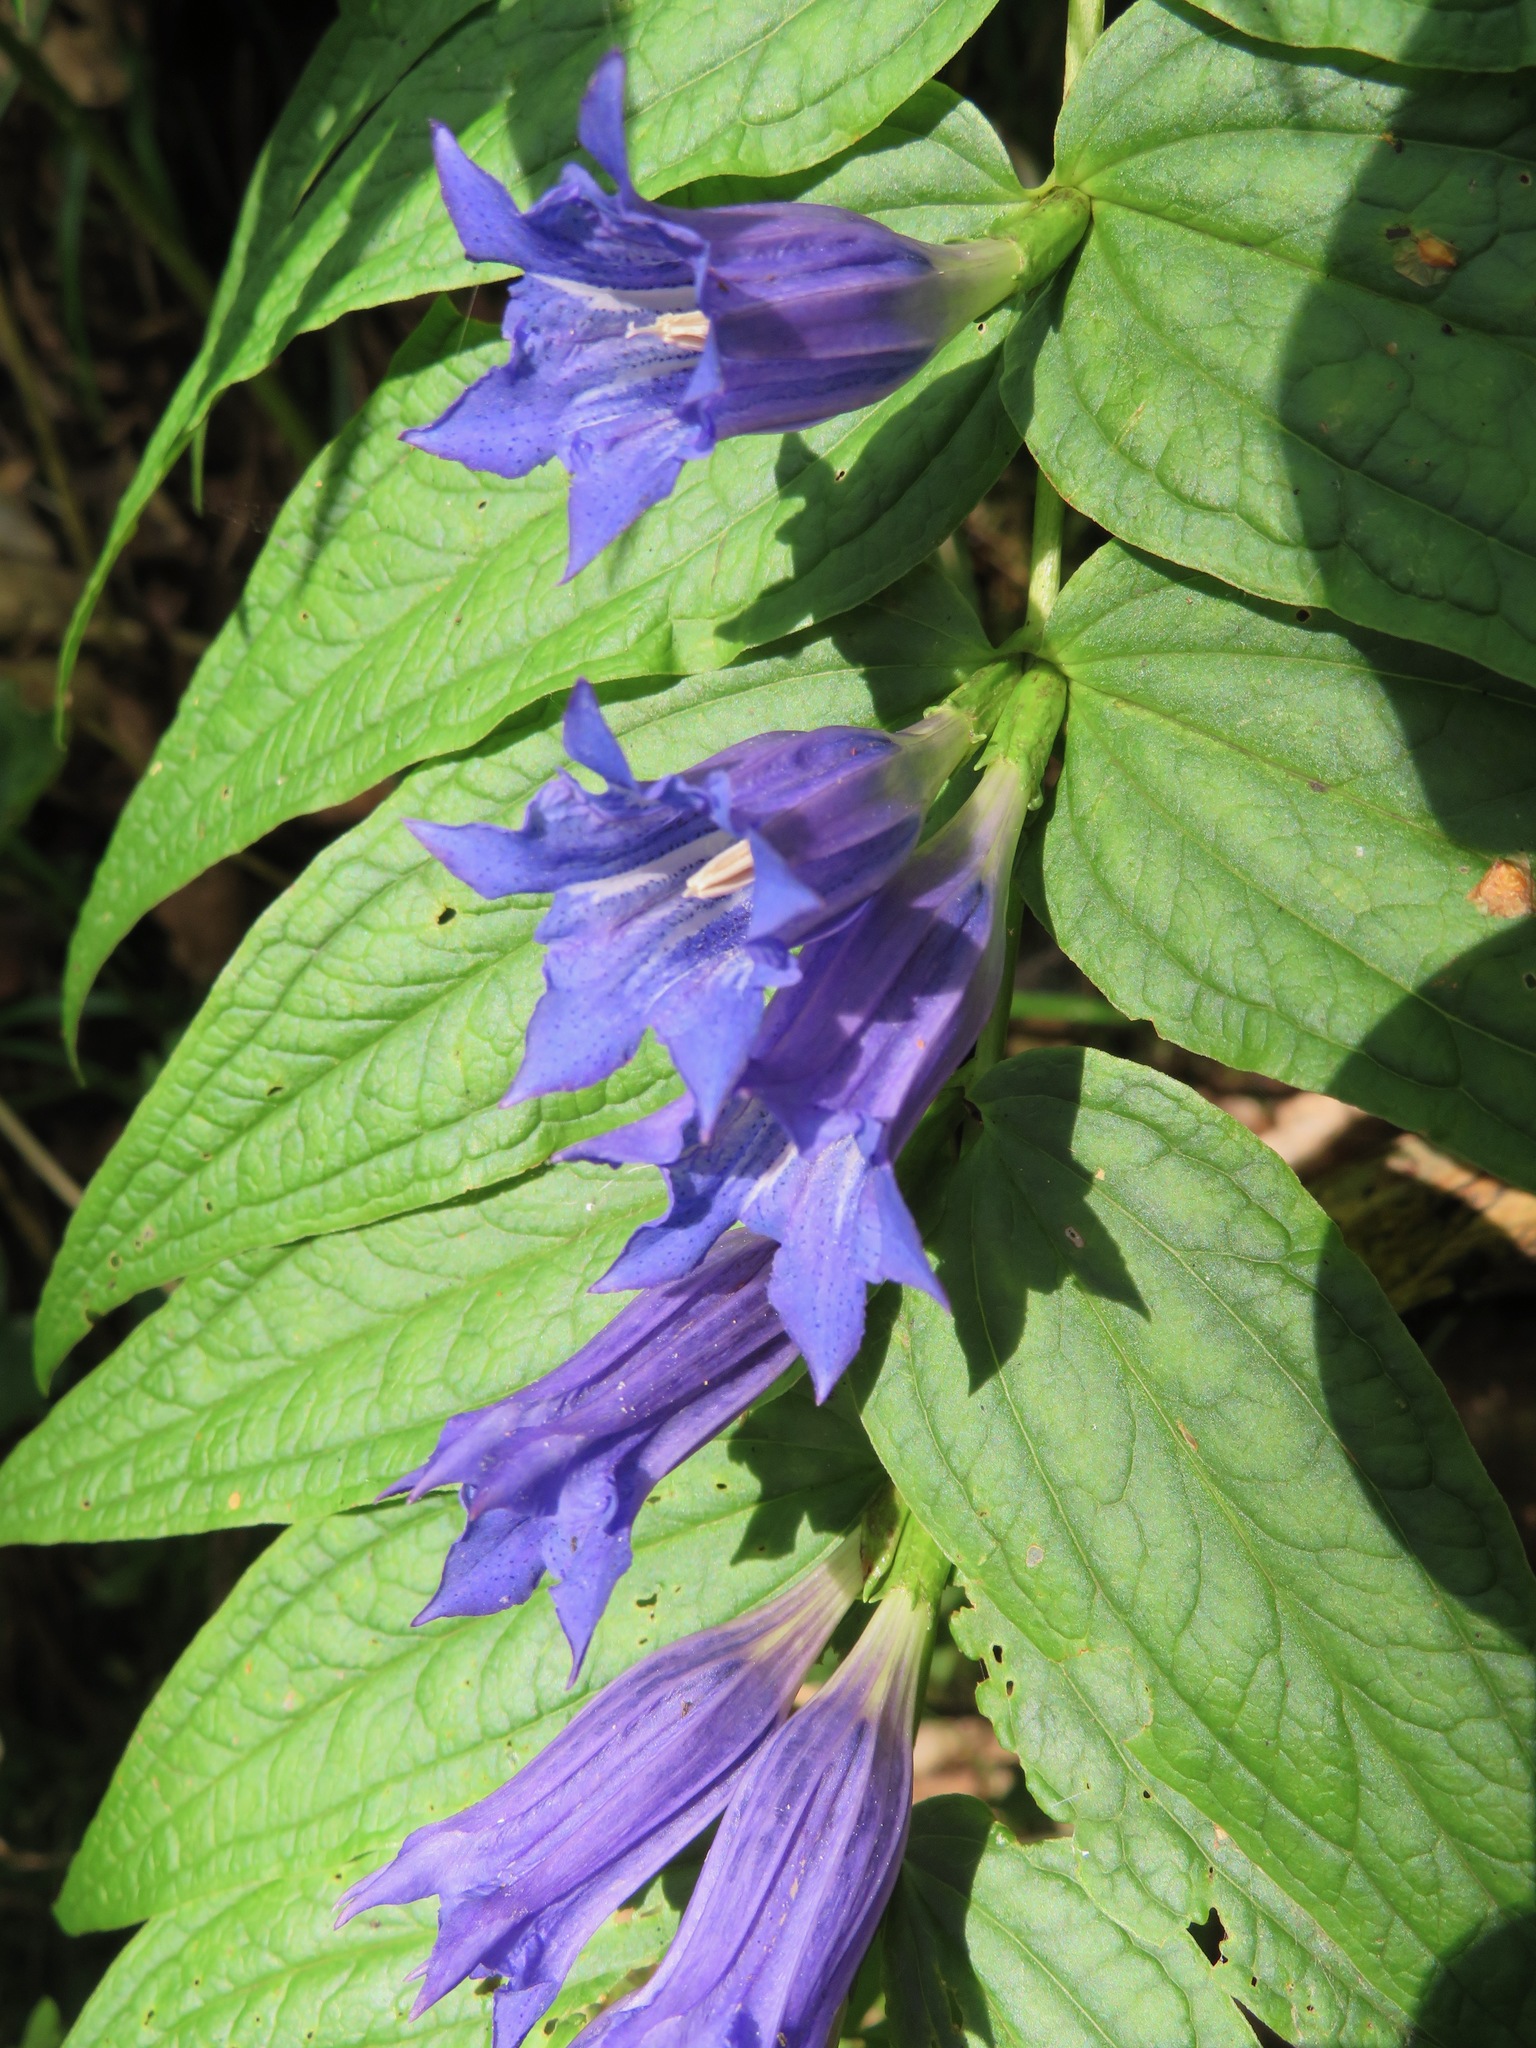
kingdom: Plantae
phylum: Tracheophyta
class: Magnoliopsida
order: Gentianales
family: Gentianaceae
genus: Gentiana
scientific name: Gentiana asclepiadea
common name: Willow gentian
